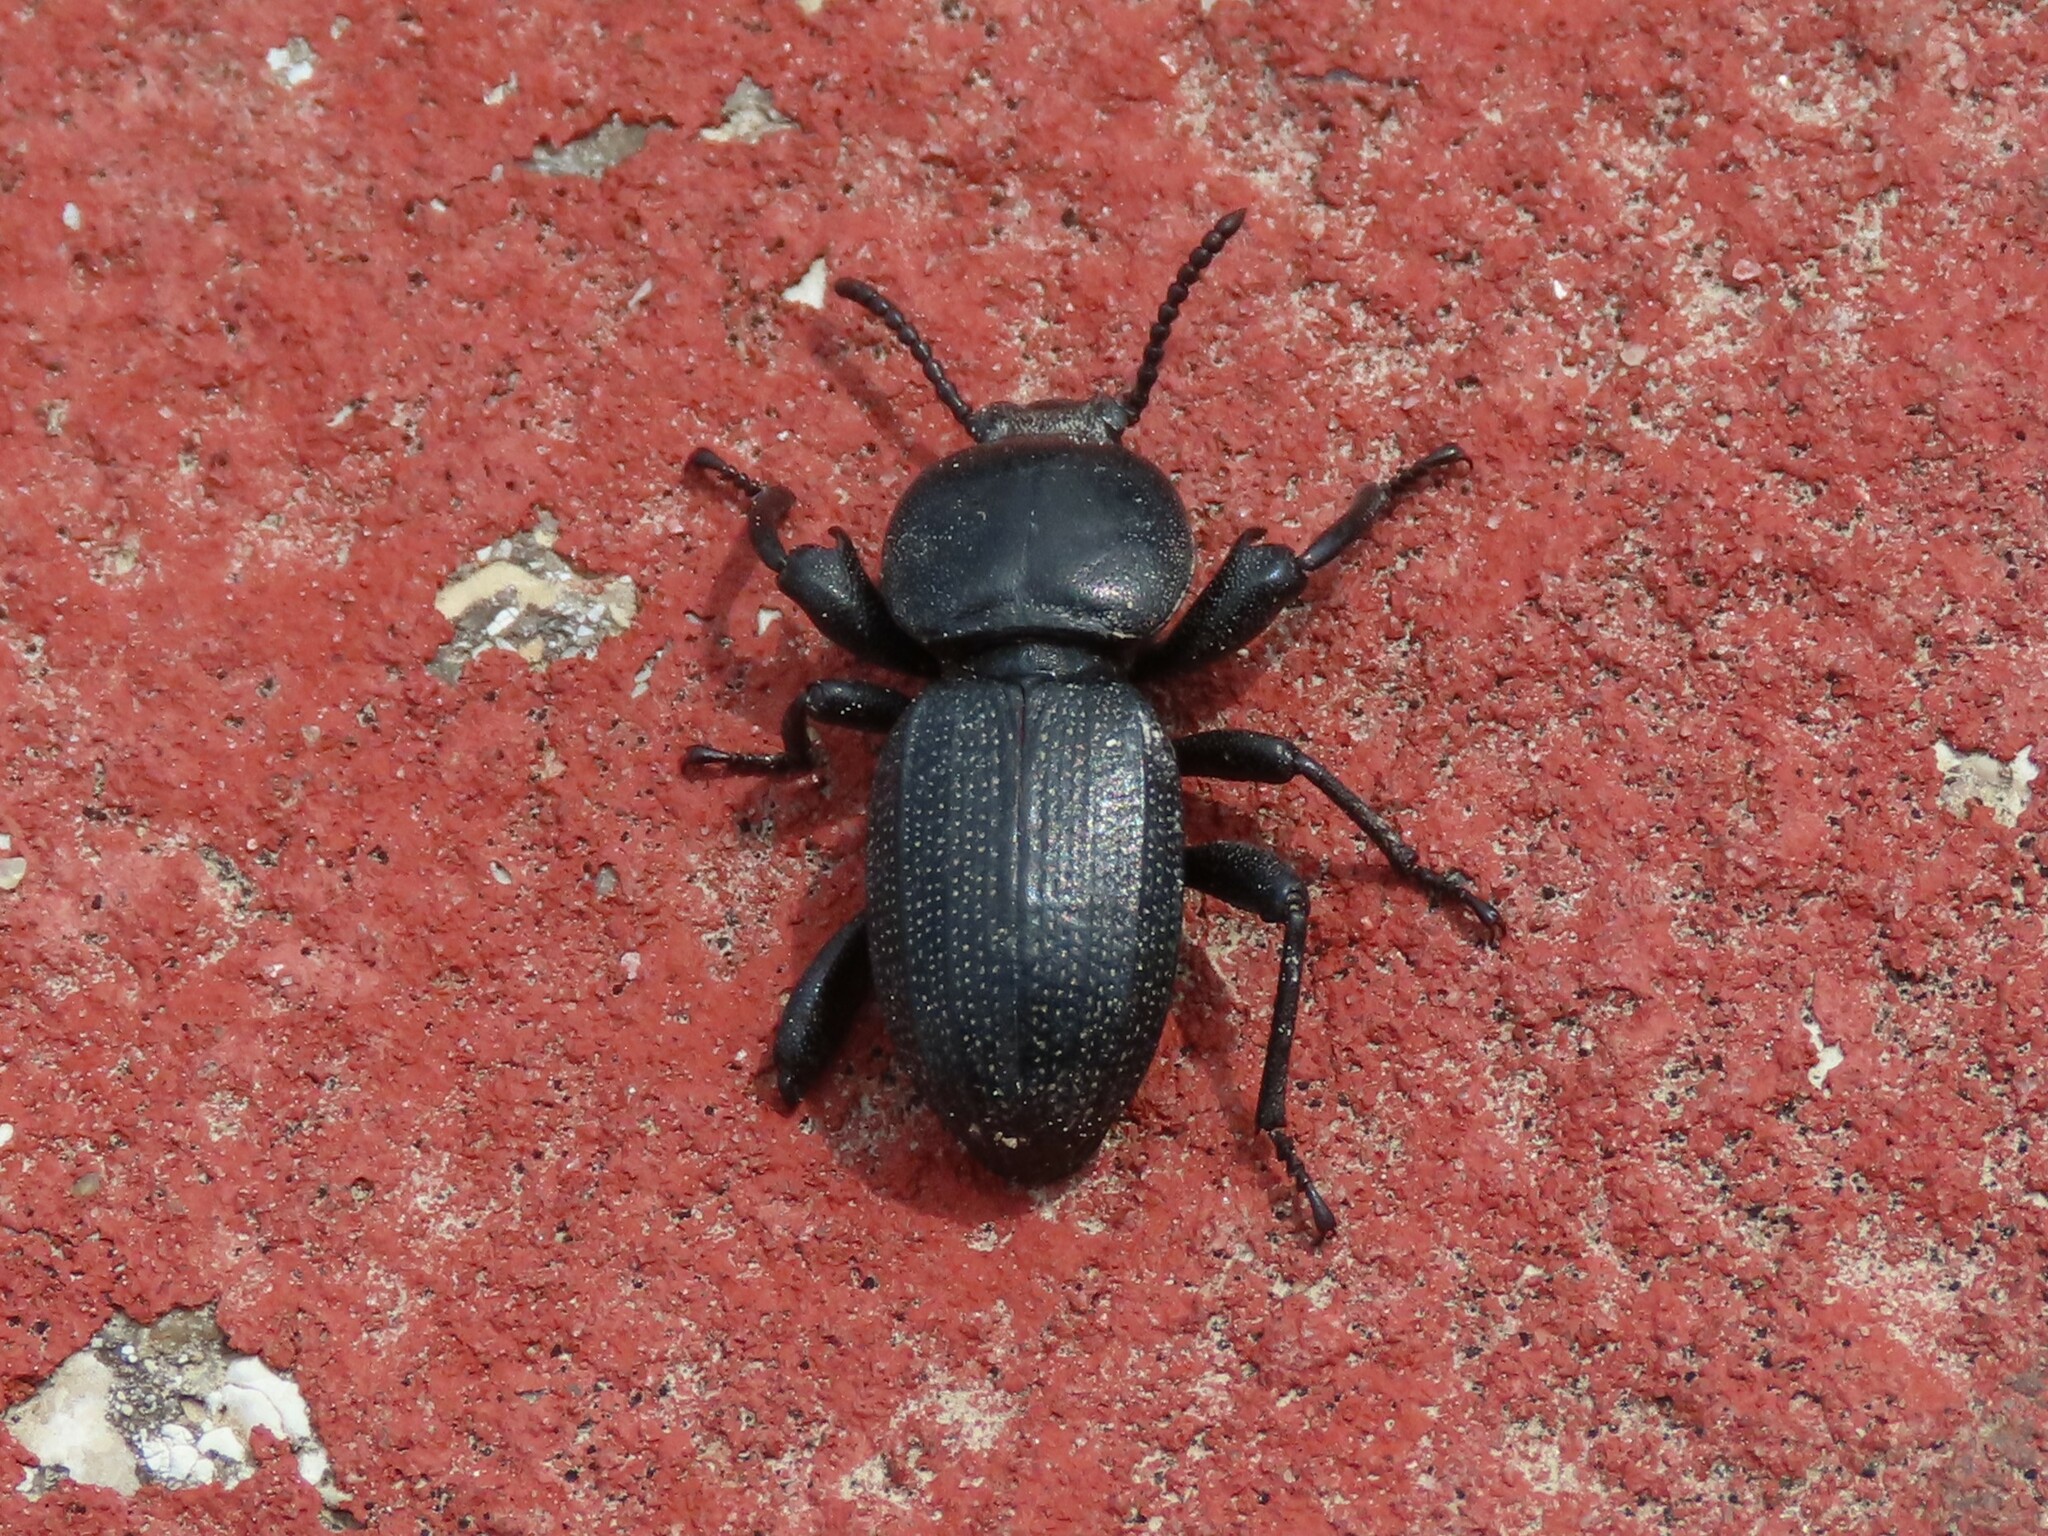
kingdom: Animalia
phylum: Arthropoda
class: Insecta
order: Coleoptera
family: Tenebrionidae
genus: Scaurus
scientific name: Scaurus uncinus
